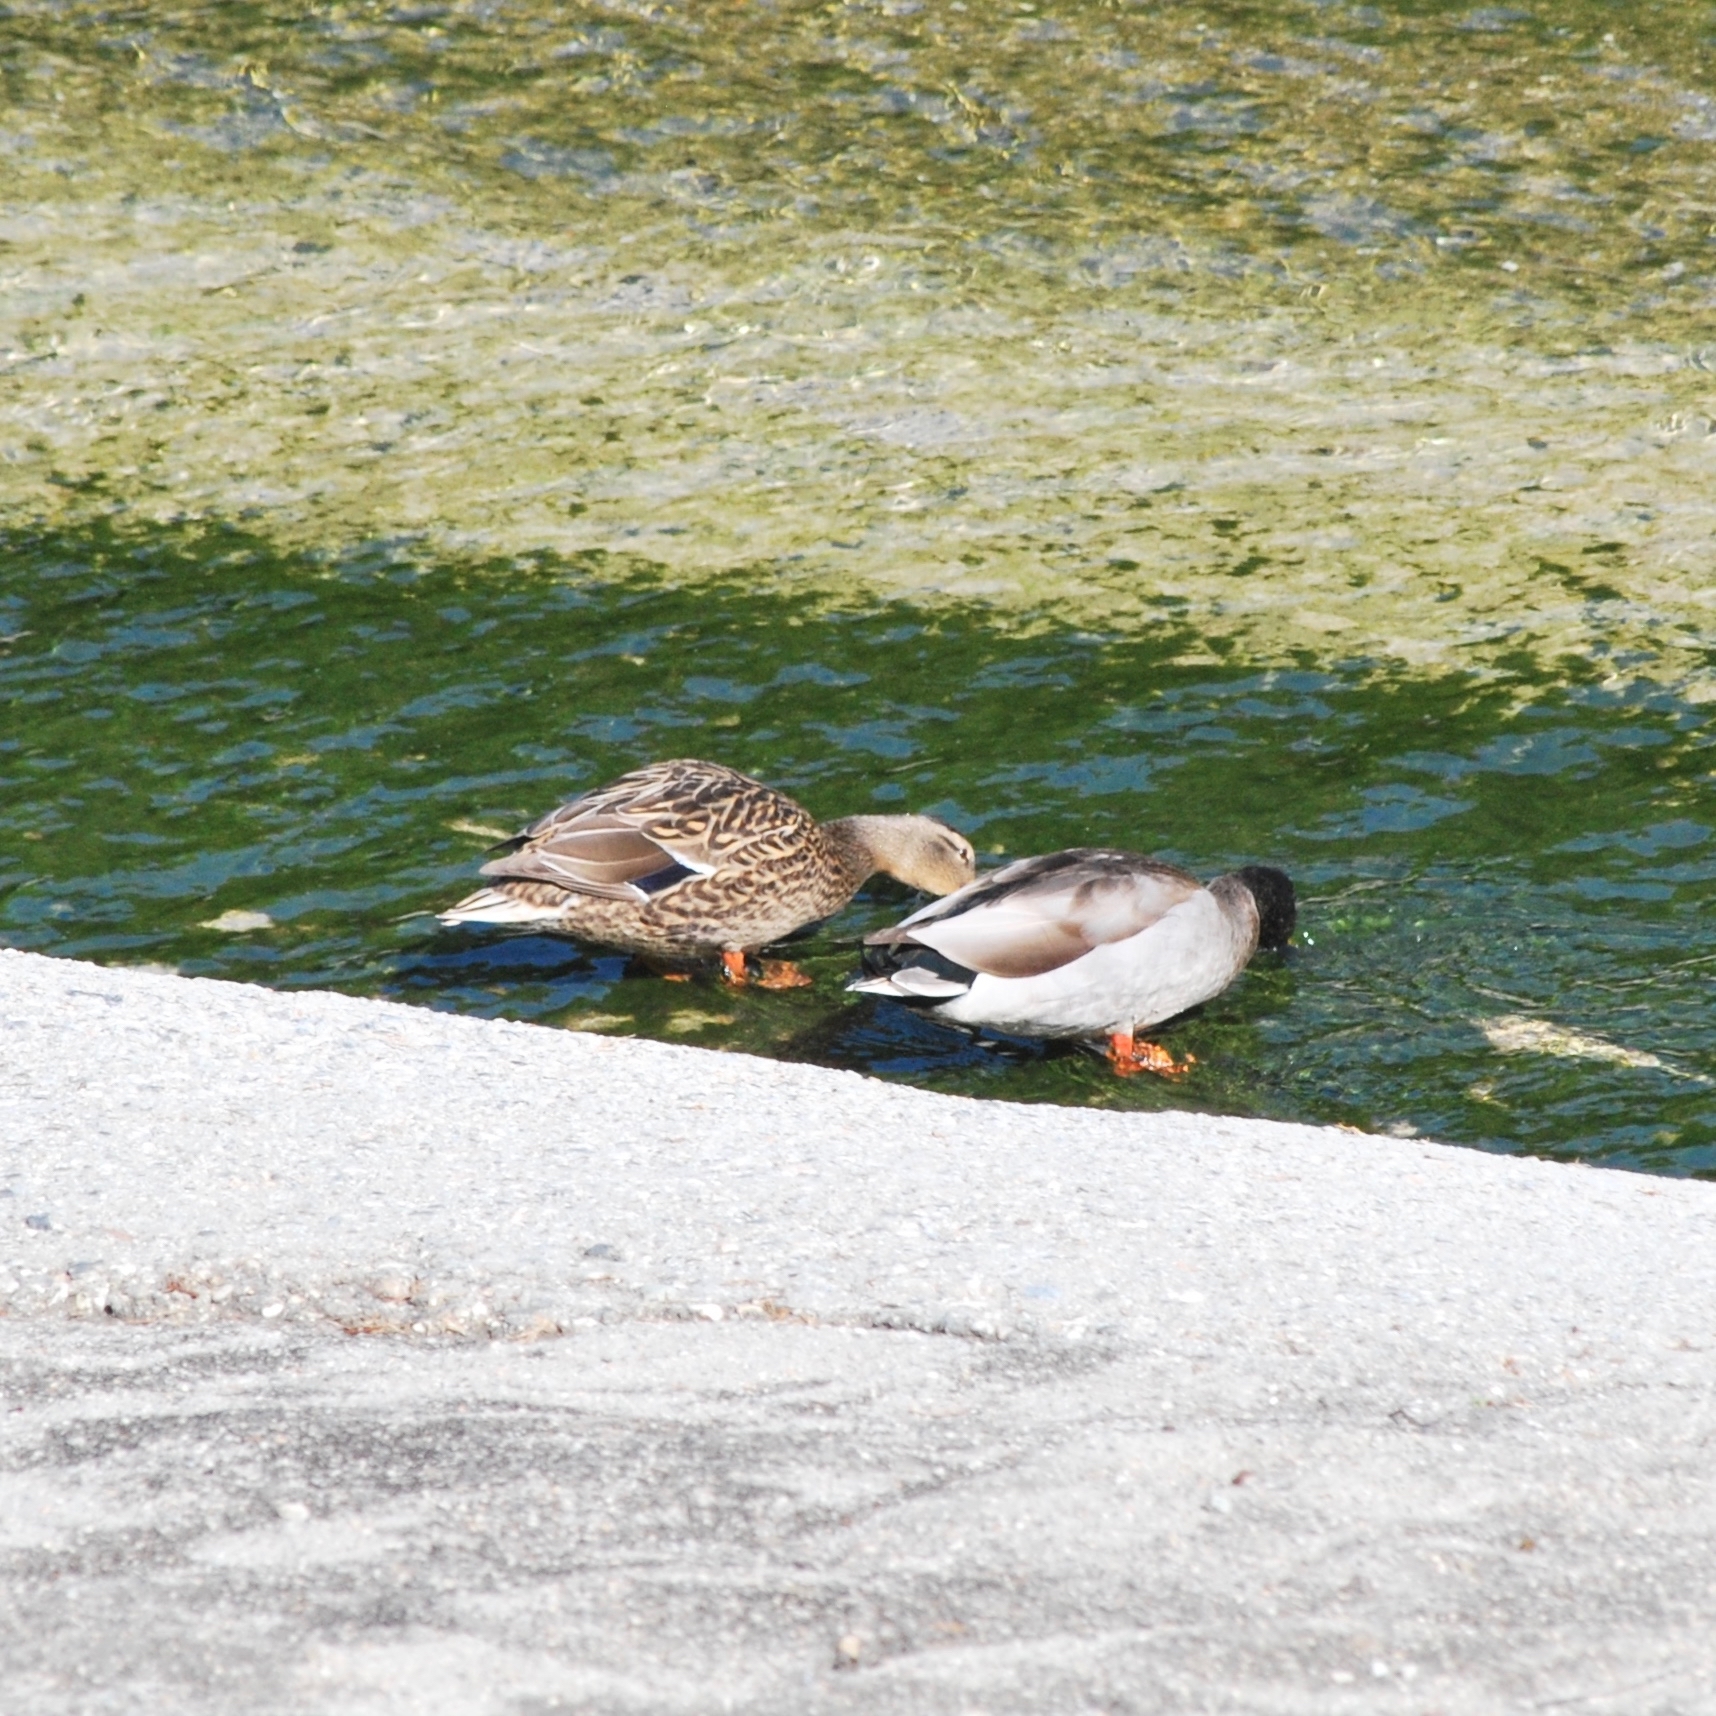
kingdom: Animalia
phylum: Chordata
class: Aves
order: Anseriformes
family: Anatidae
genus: Anas
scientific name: Anas platyrhynchos
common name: Mallard
